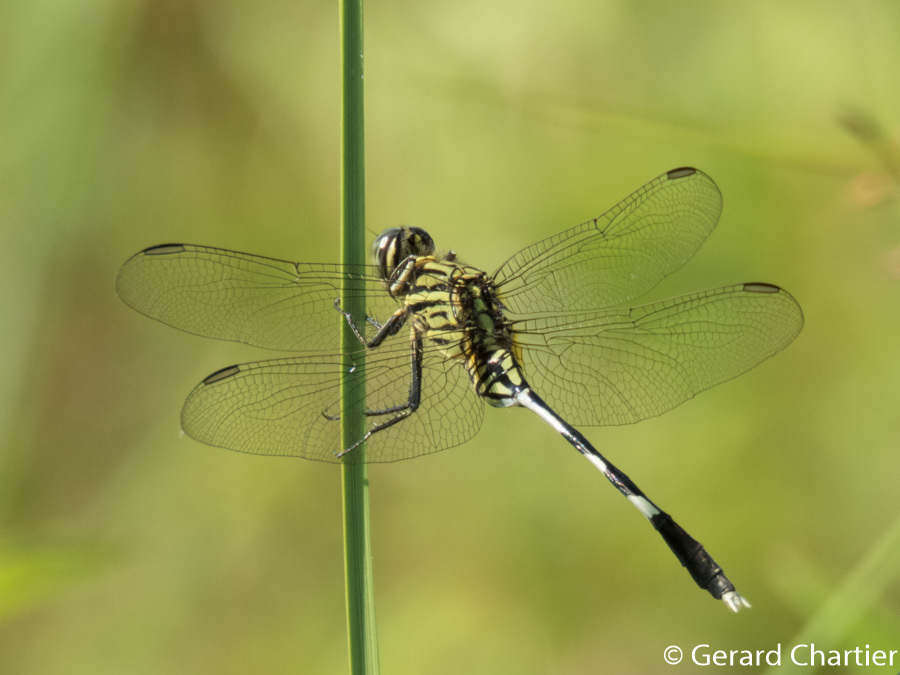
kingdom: Animalia
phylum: Arthropoda
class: Insecta
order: Odonata
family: Libellulidae
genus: Orthetrum
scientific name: Orthetrum sabina
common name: Slender skimmer
